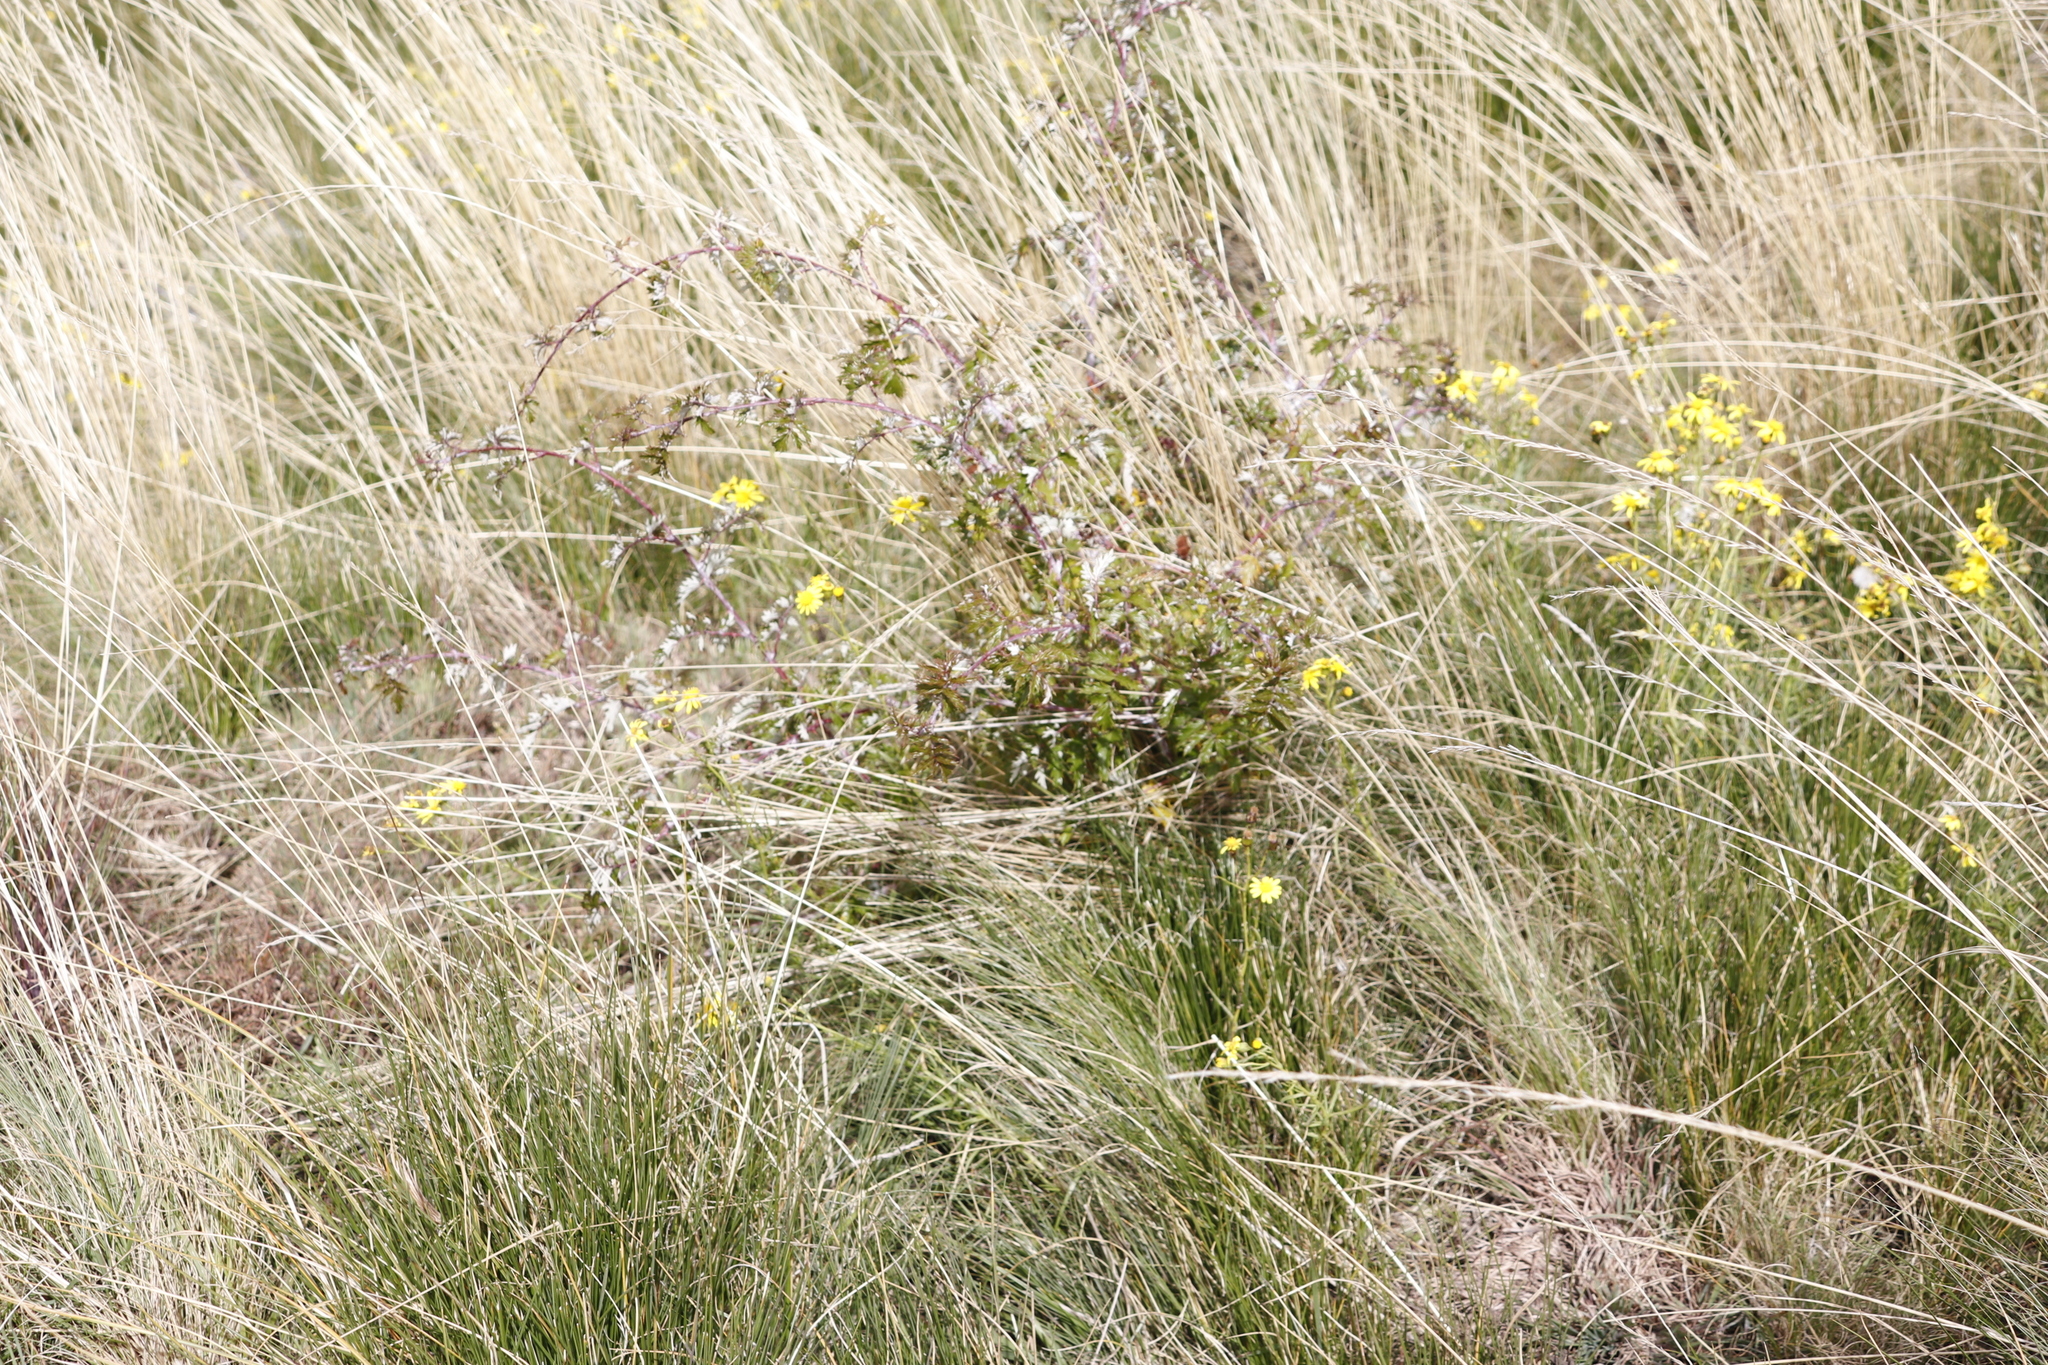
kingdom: Plantae
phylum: Tracheophyta
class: Magnoliopsida
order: Rosales
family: Rosaceae
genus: Rubus
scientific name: Rubus ludwigii
